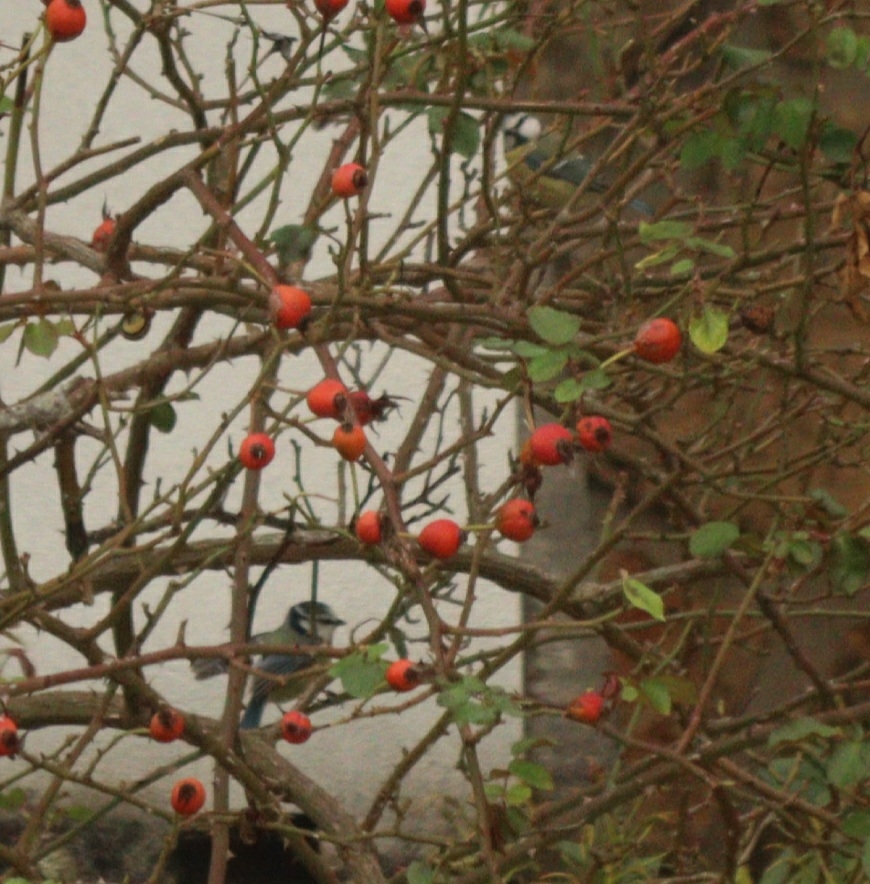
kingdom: Animalia
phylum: Chordata
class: Aves
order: Passeriformes
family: Paridae
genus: Cyanistes
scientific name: Cyanistes caeruleus
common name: Eurasian blue tit
